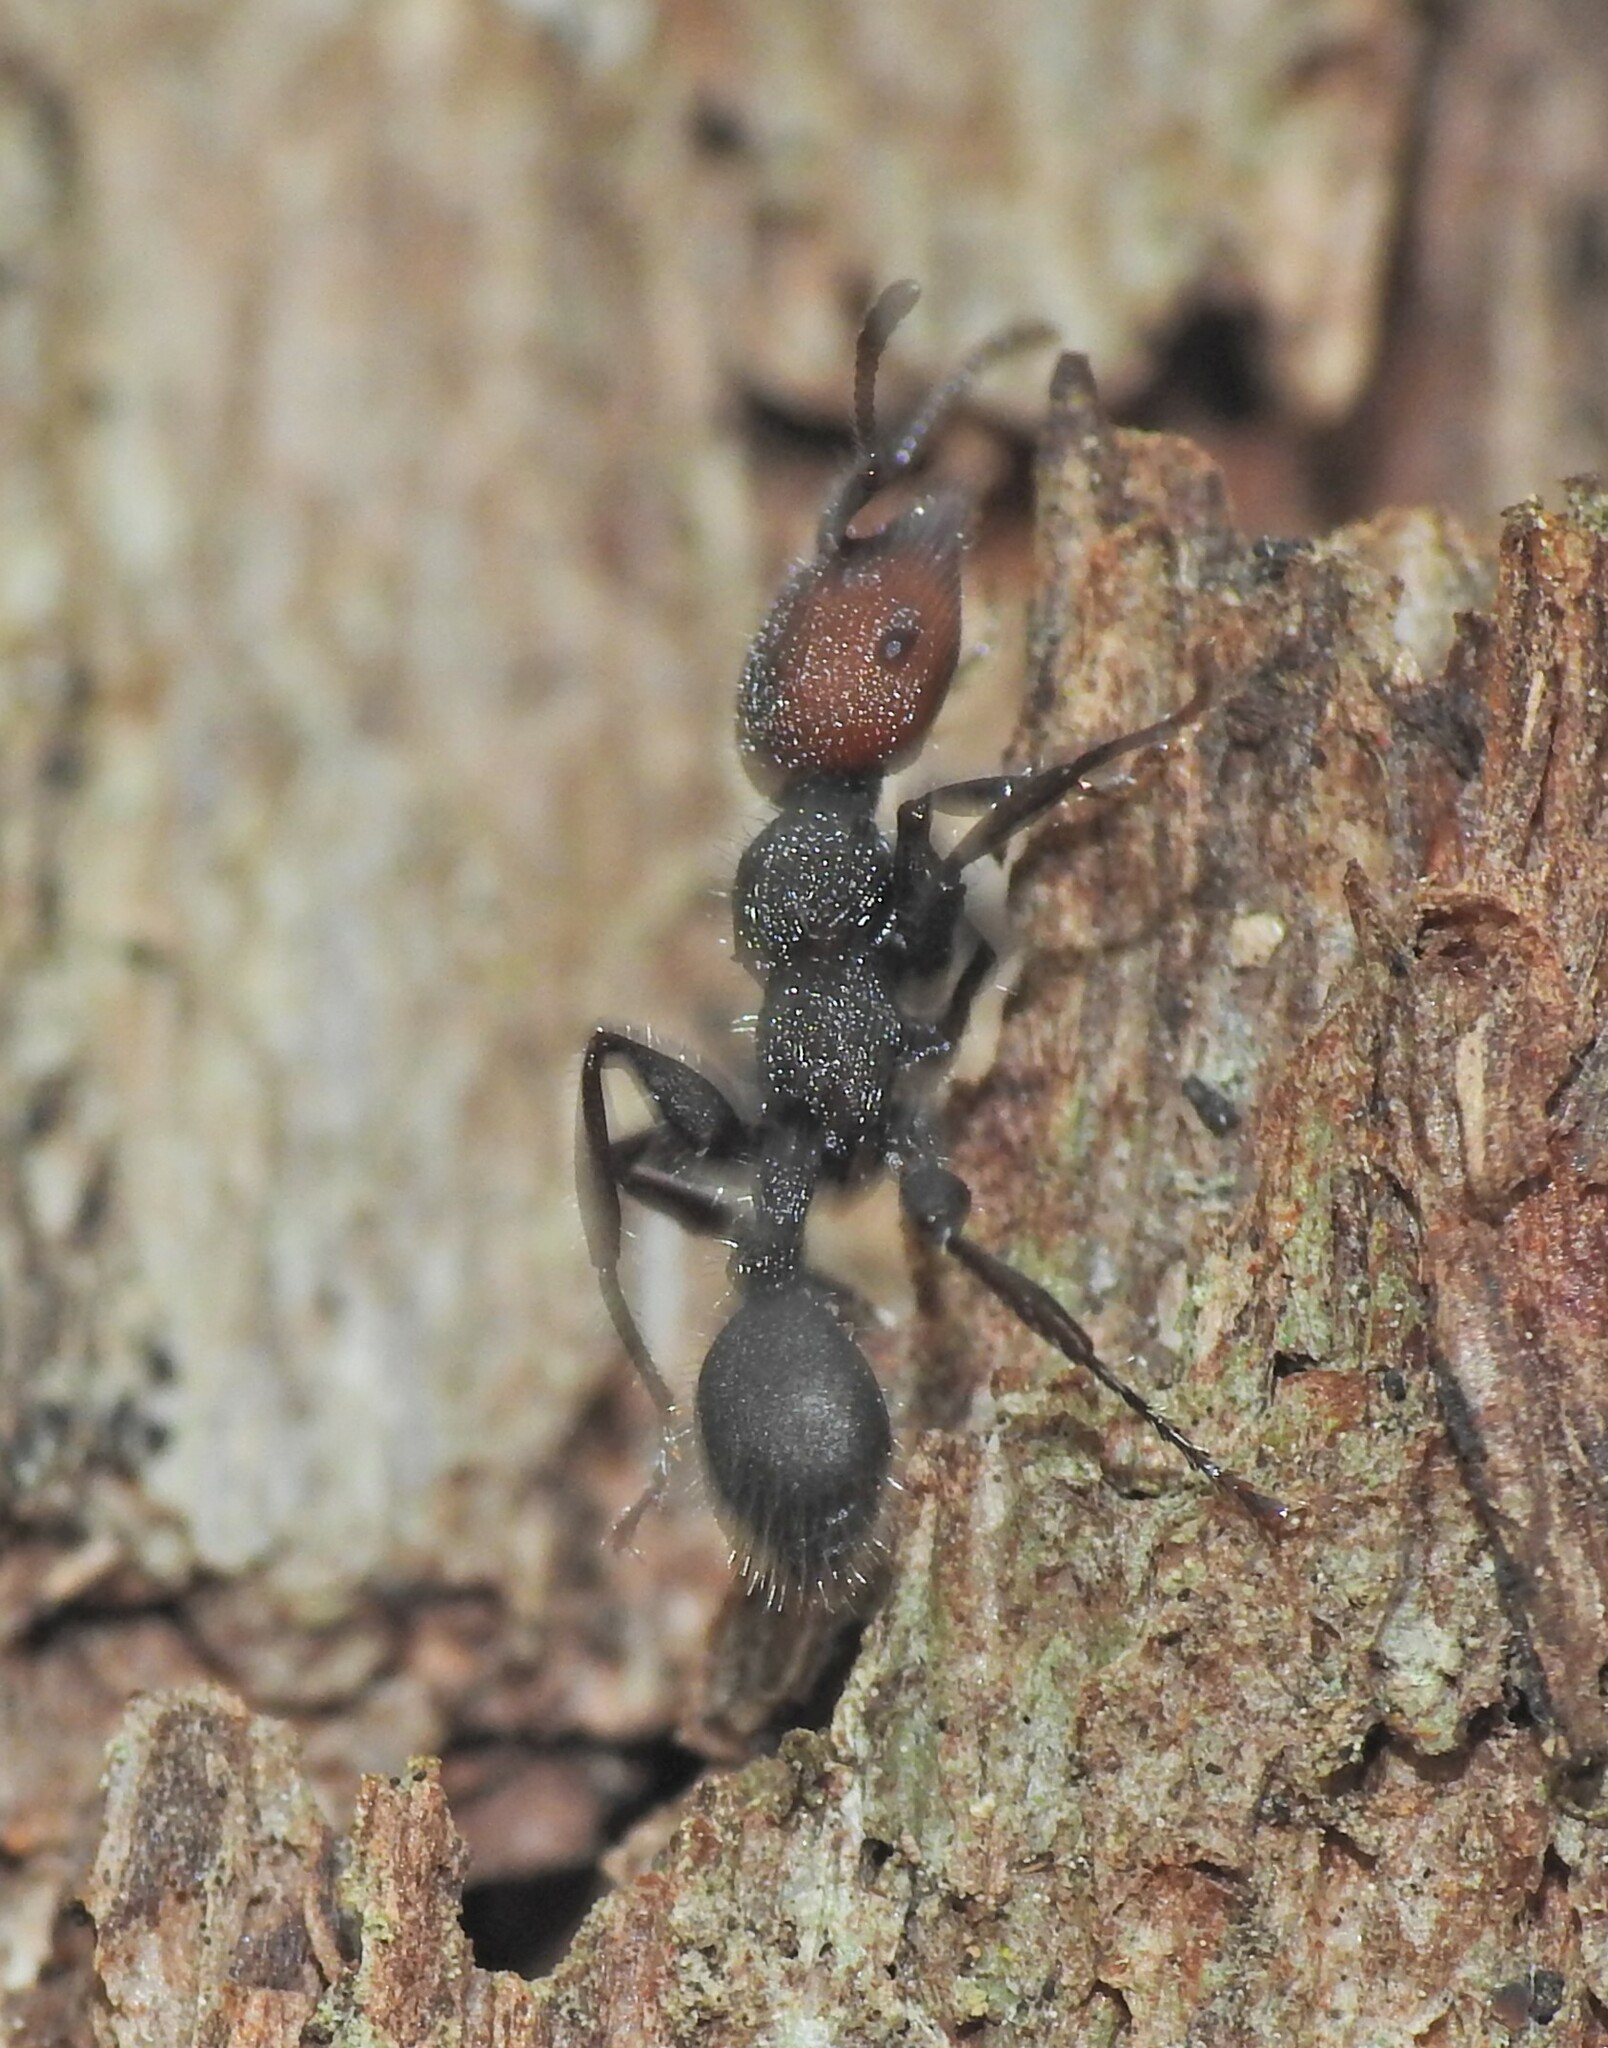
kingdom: Animalia
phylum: Arthropoda
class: Insecta
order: Hymenoptera
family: Formicidae
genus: Podomyrma
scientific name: Podomyrma micans
